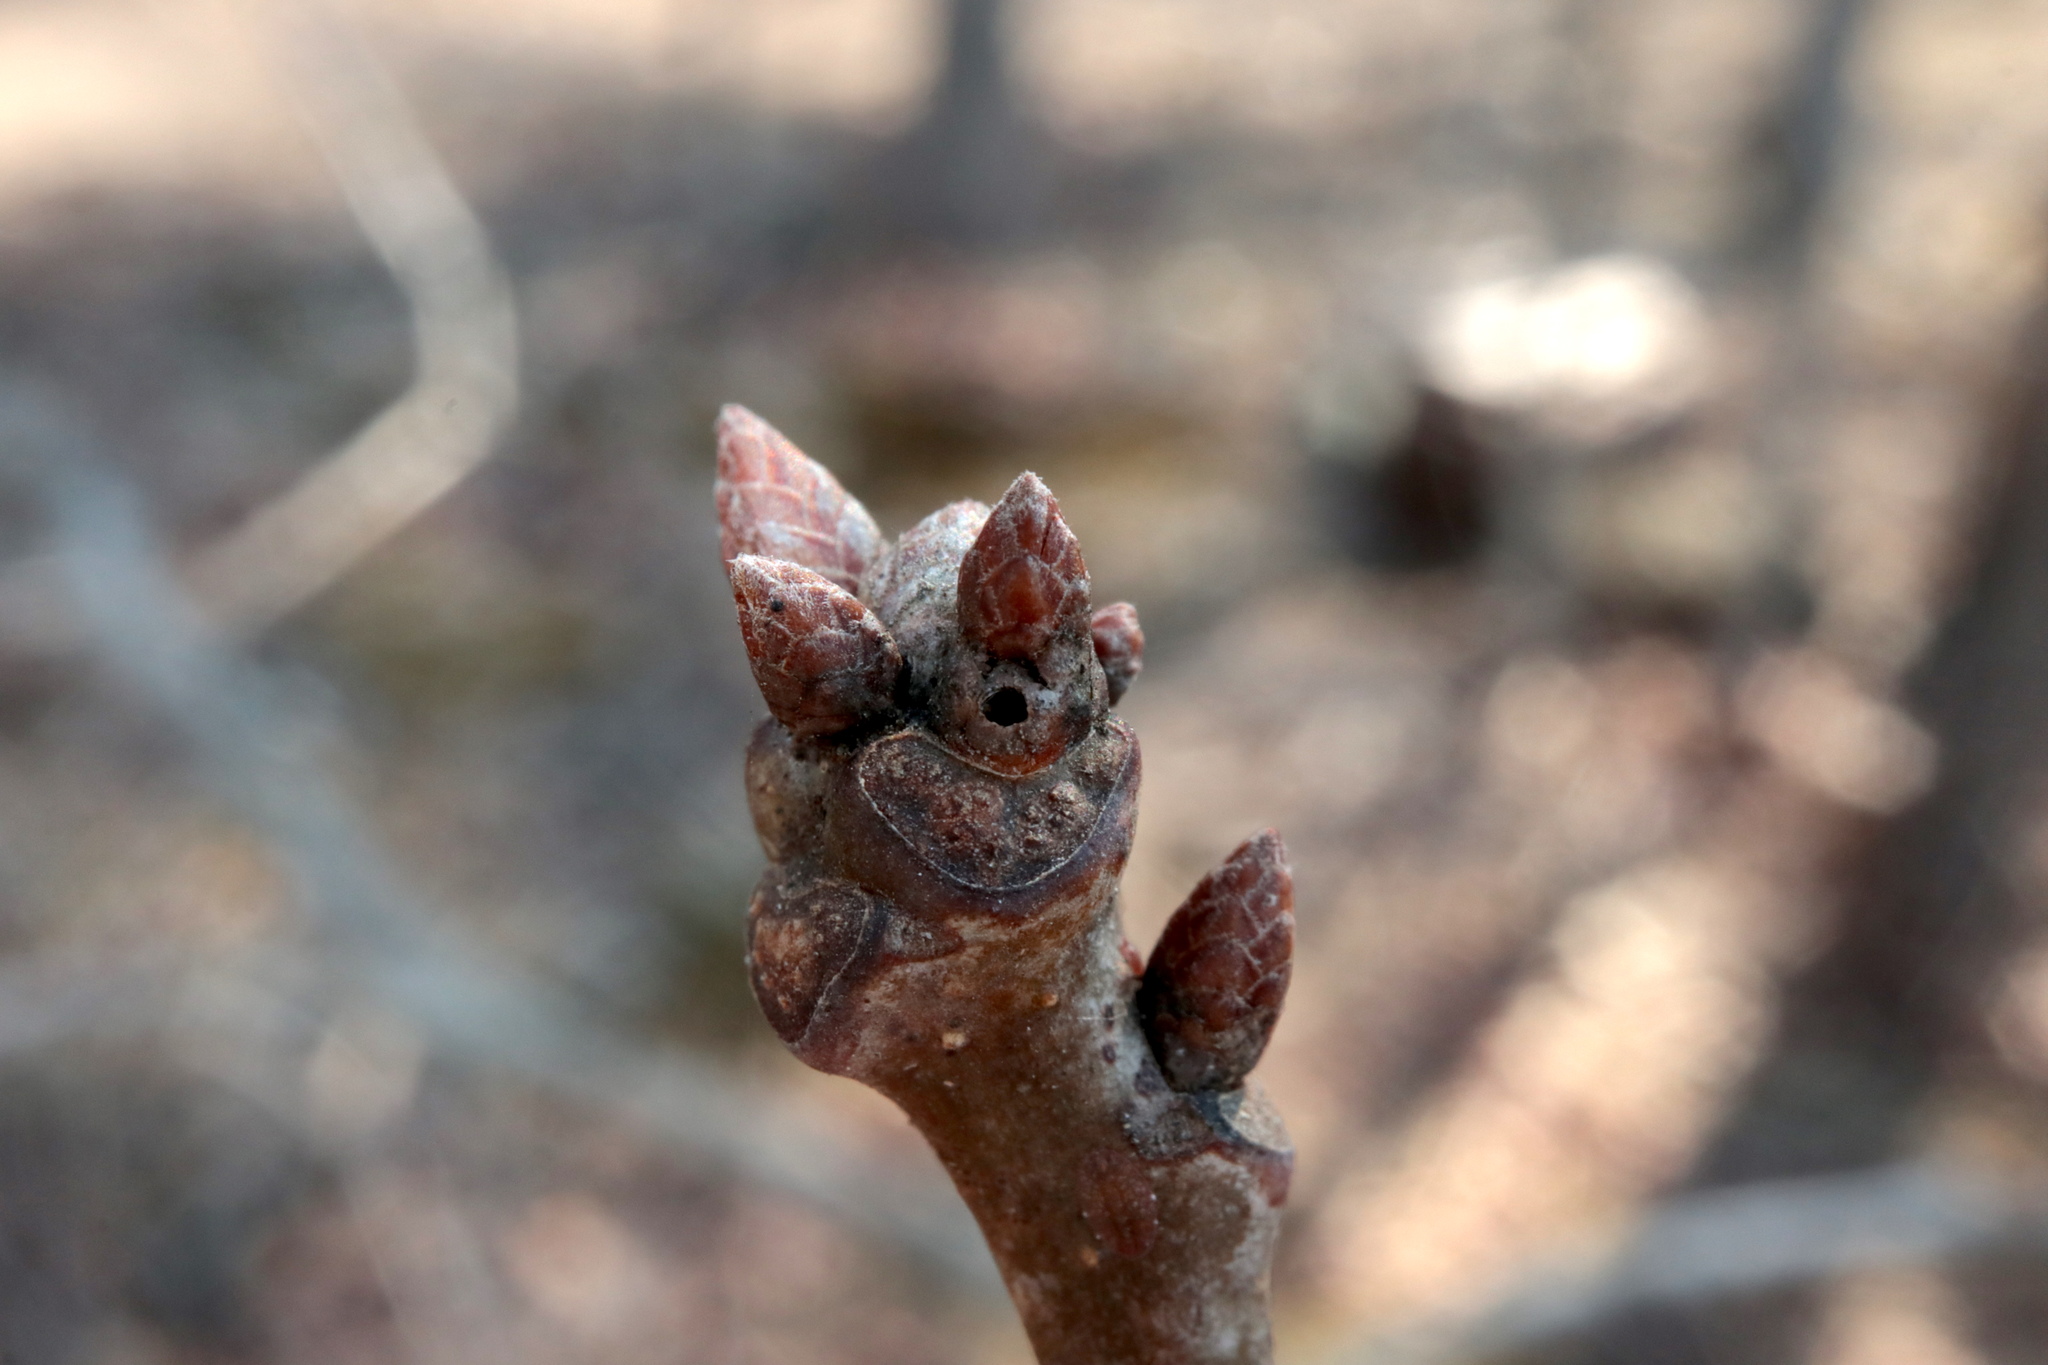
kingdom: Animalia
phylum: Arthropoda
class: Insecta
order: Hymenoptera
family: Cynipidae
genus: Neuroterus
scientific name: Neuroterus
